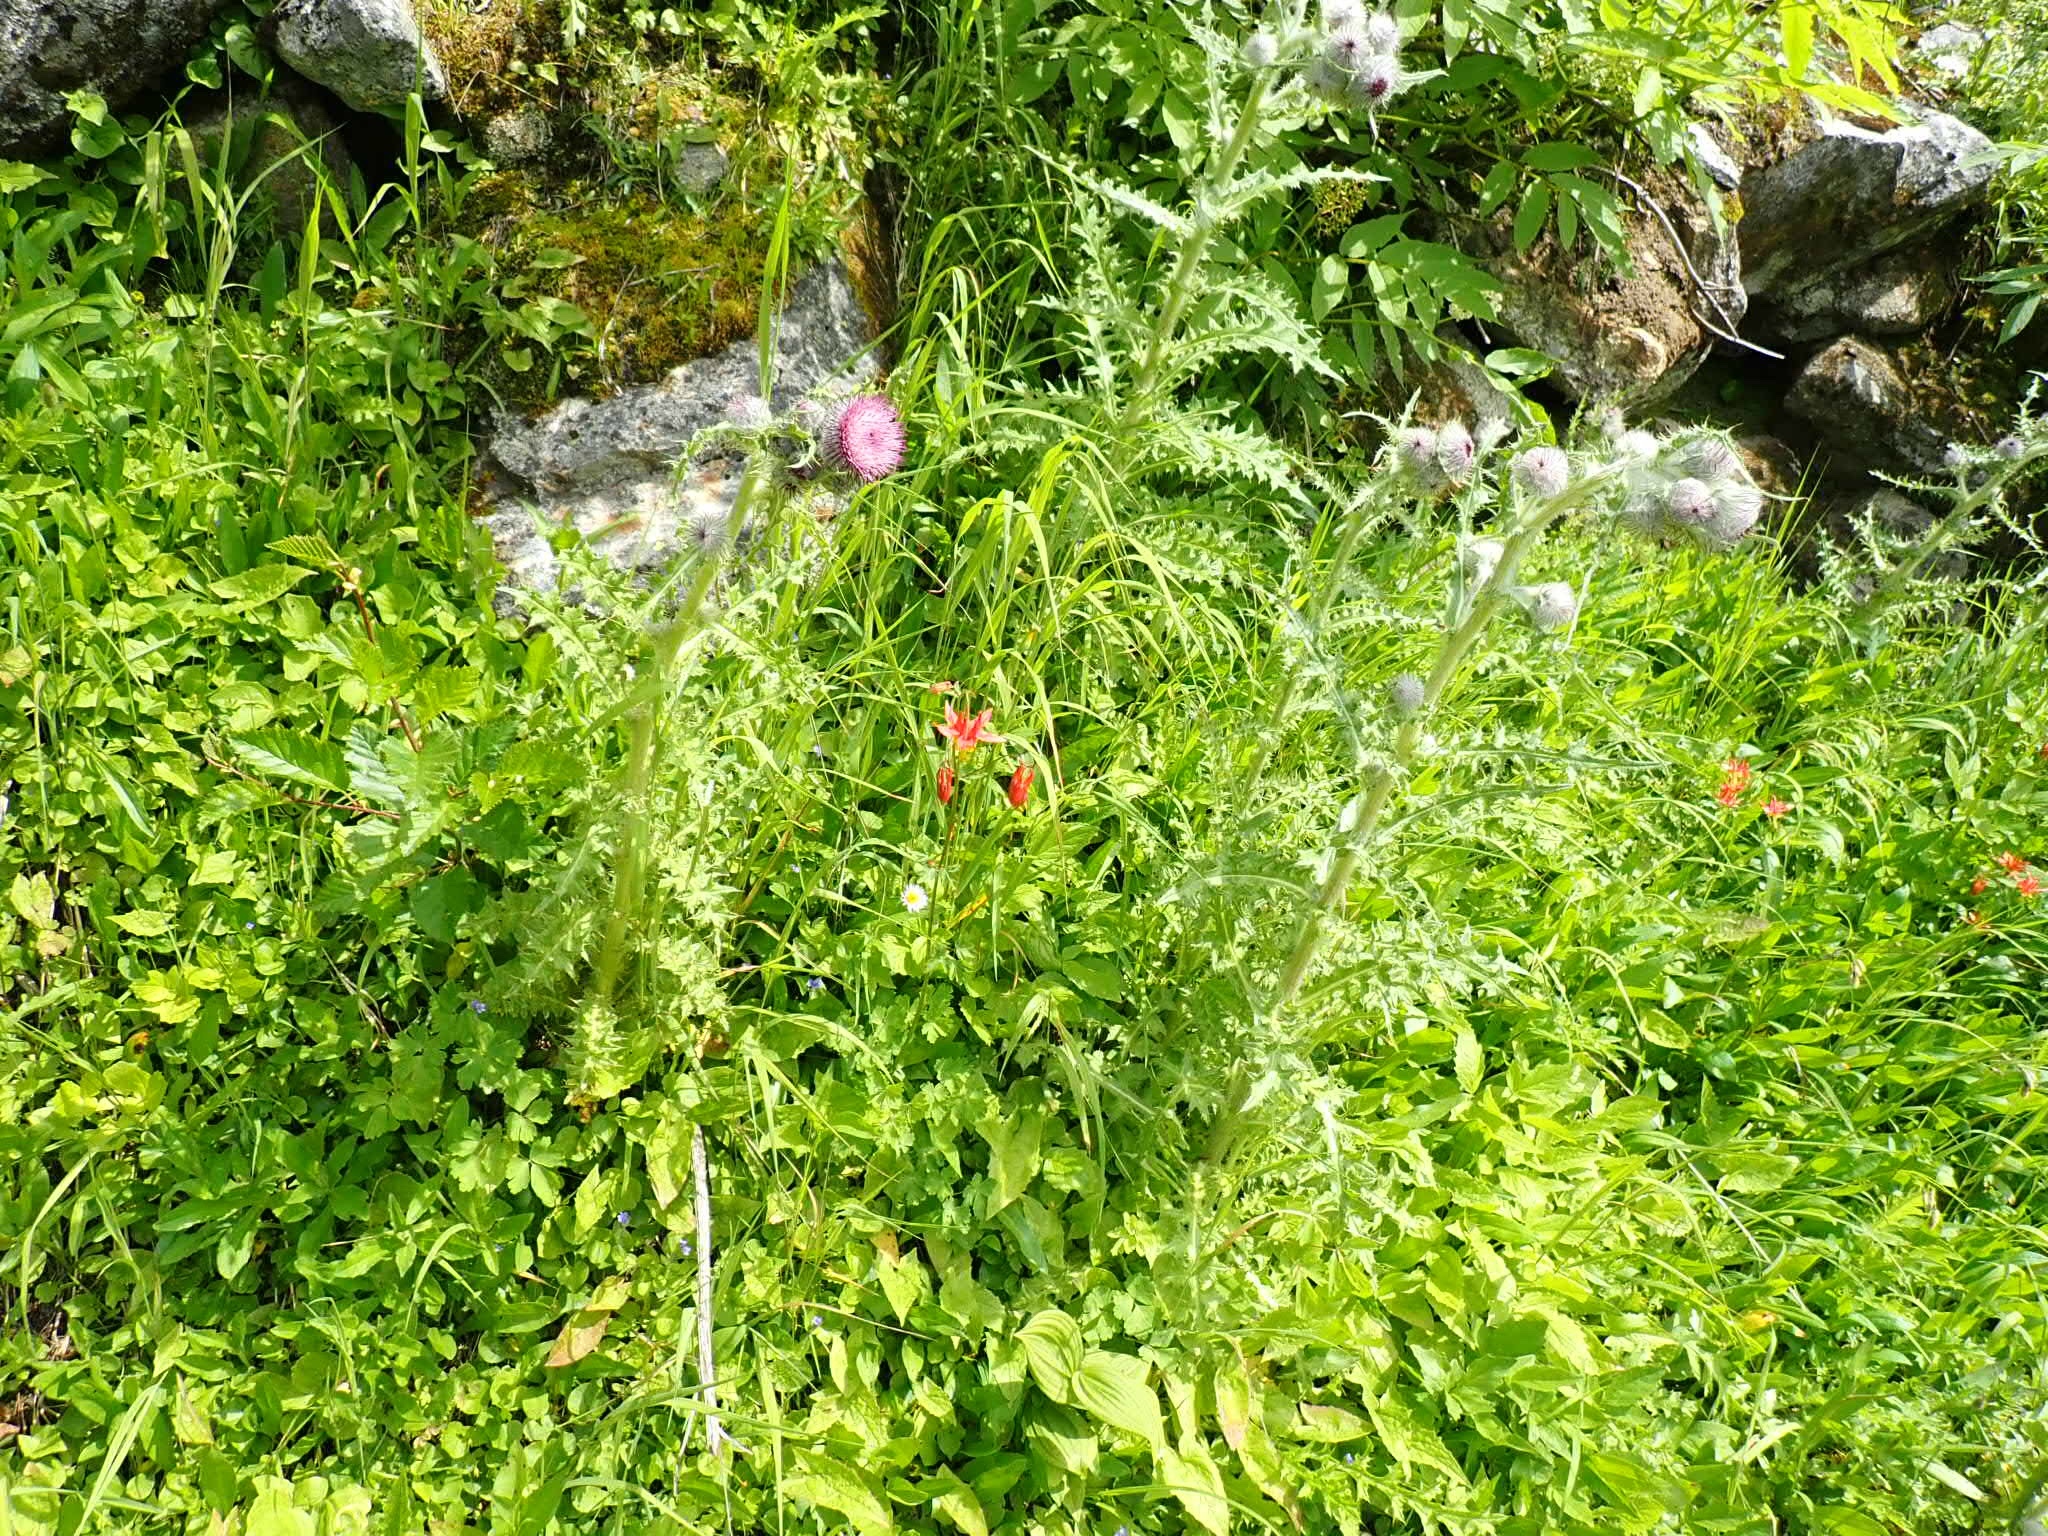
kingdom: Plantae
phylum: Tracheophyta
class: Magnoliopsida
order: Asterales
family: Asteraceae
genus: Cirsium
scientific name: Cirsium edule
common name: Indian thistle
